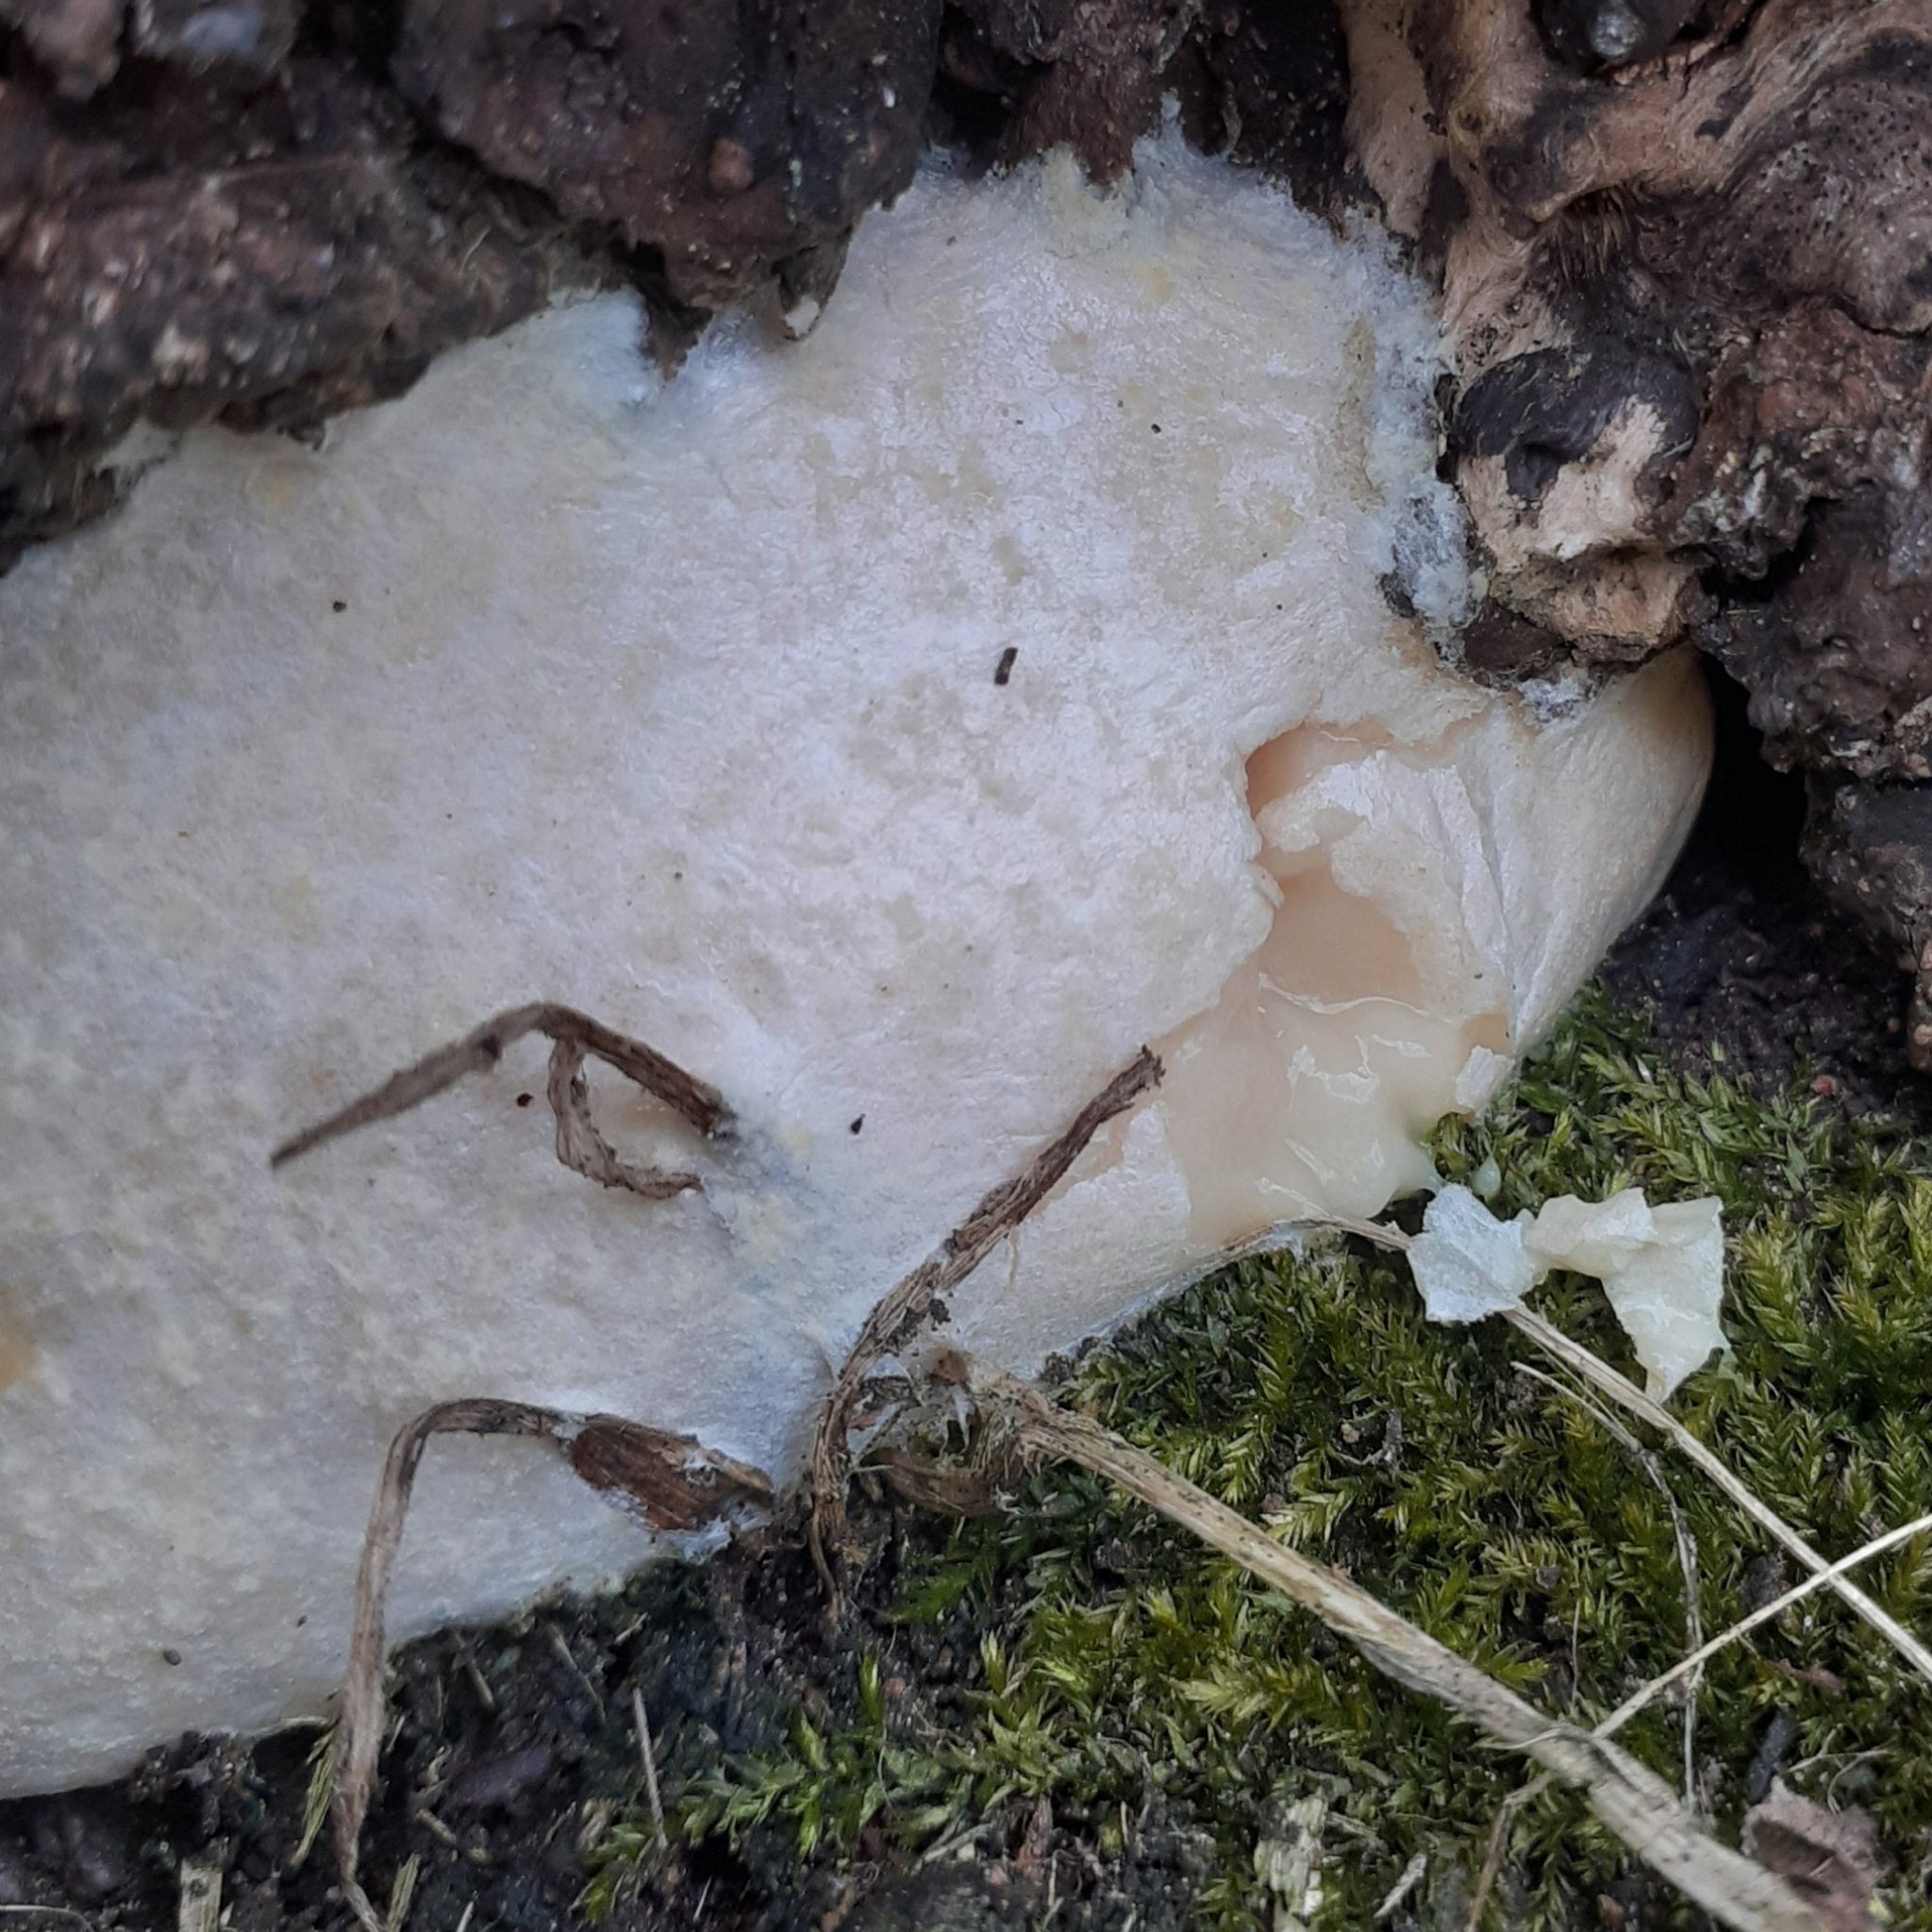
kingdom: Protozoa
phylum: Mycetozoa
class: Myxomycetes
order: Cribrariales
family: Tubiferaceae
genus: Reticularia
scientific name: Reticularia lycoperdon
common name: False puffball
